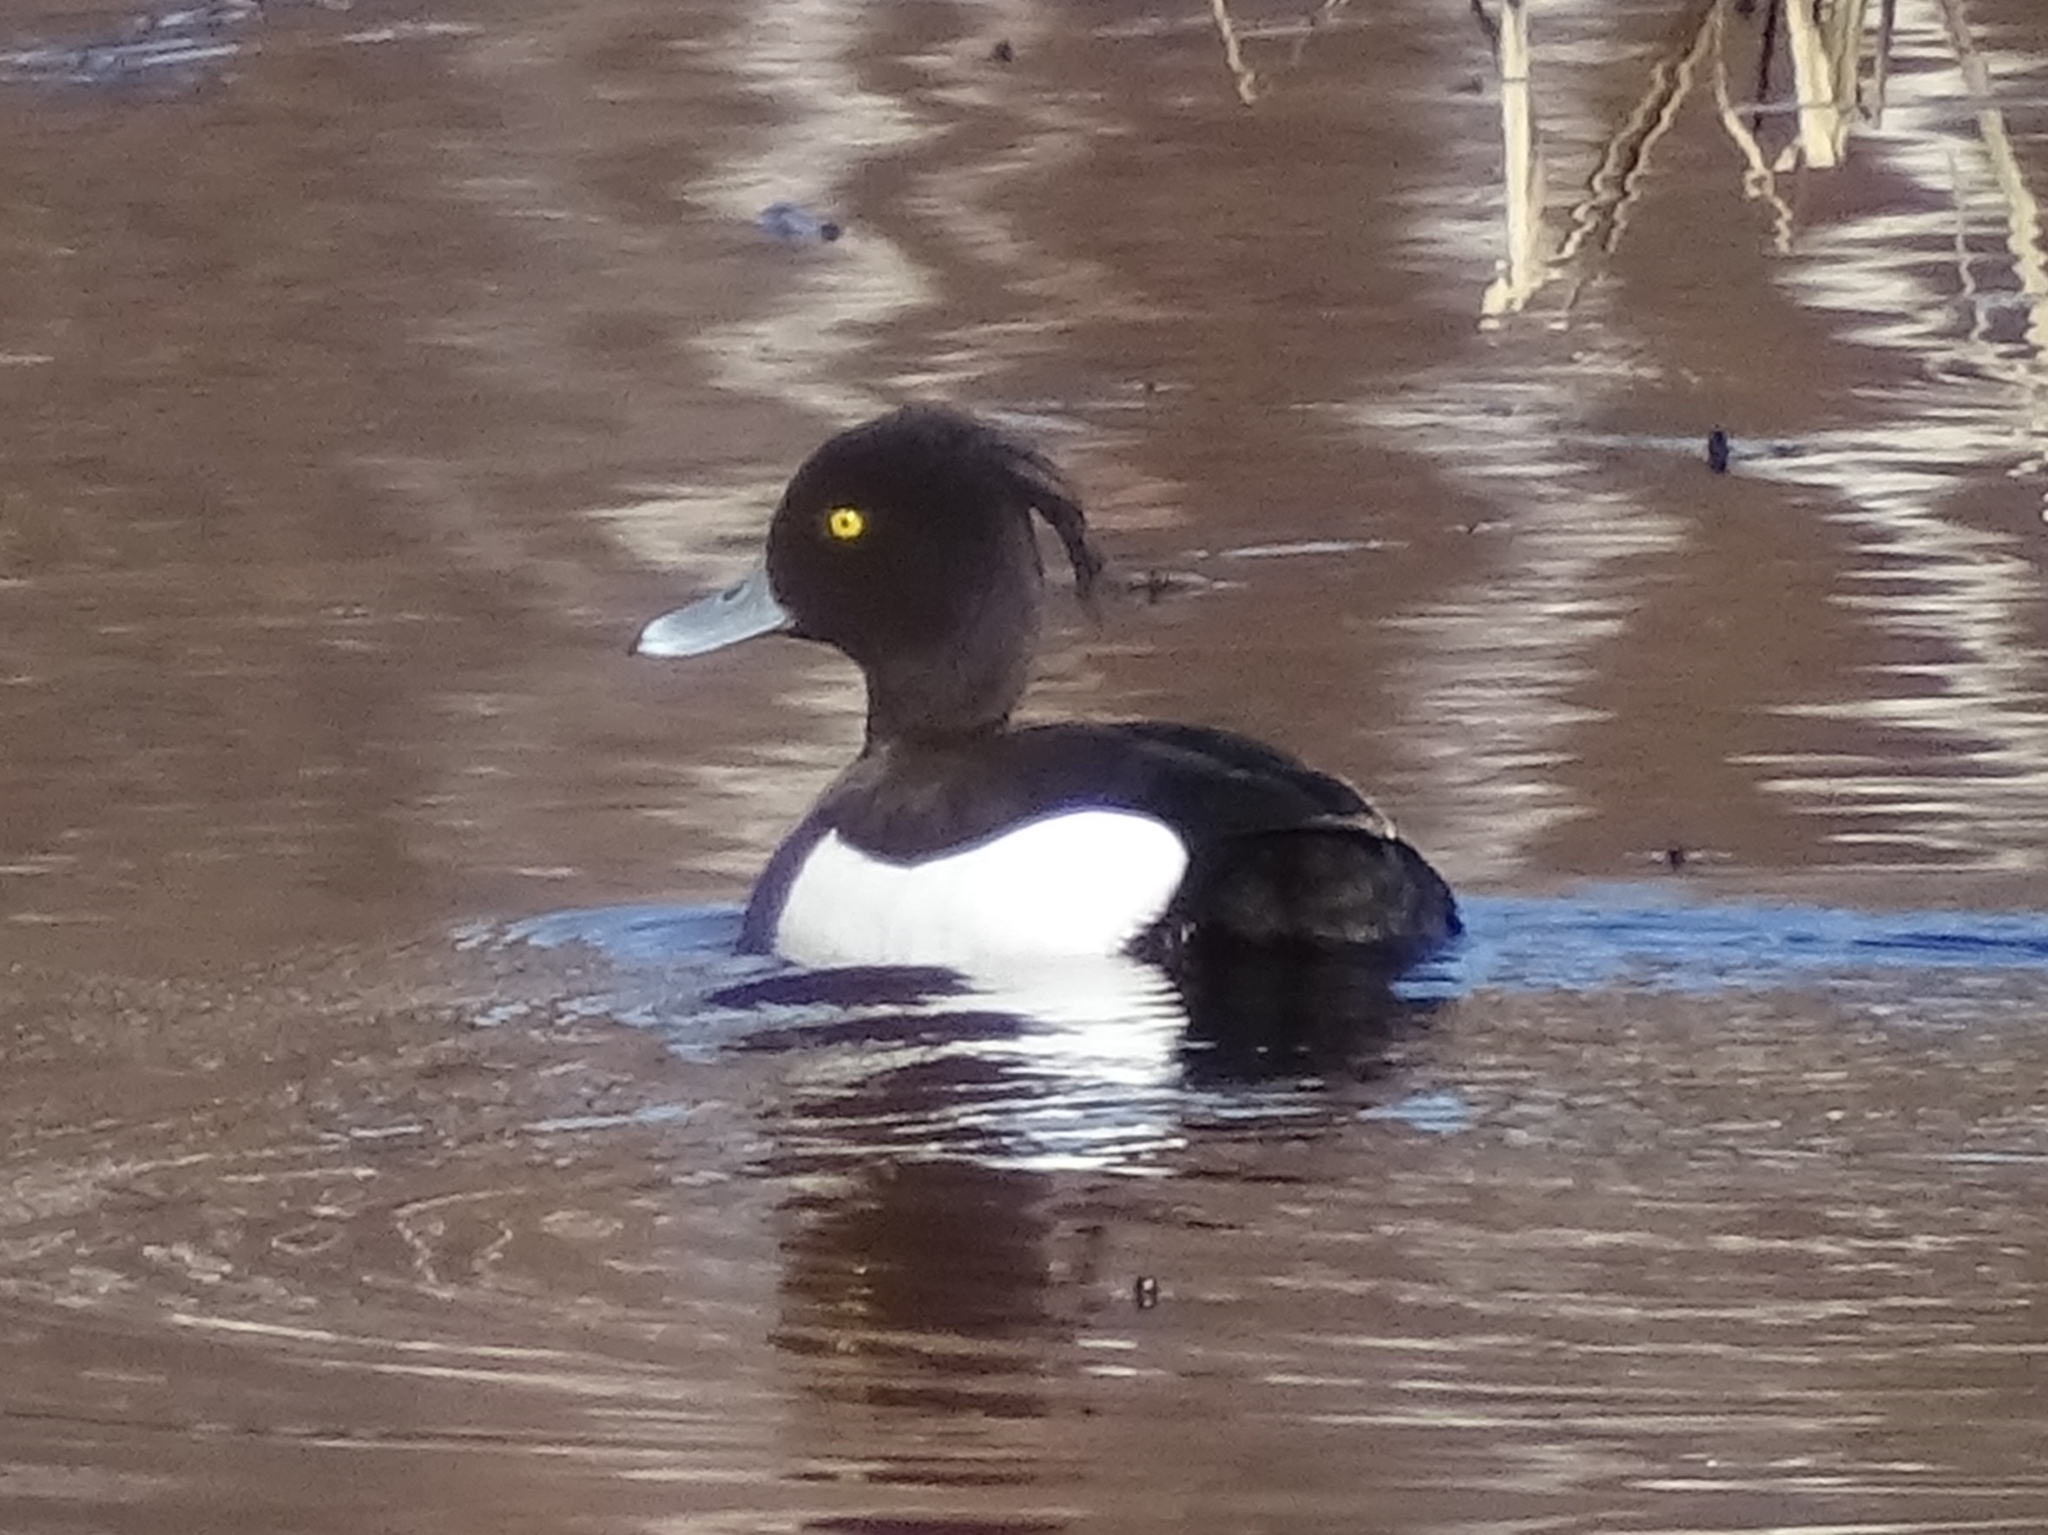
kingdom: Animalia
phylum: Chordata
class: Aves
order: Anseriformes
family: Anatidae
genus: Aythya
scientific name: Aythya fuligula
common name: Tufted duck
